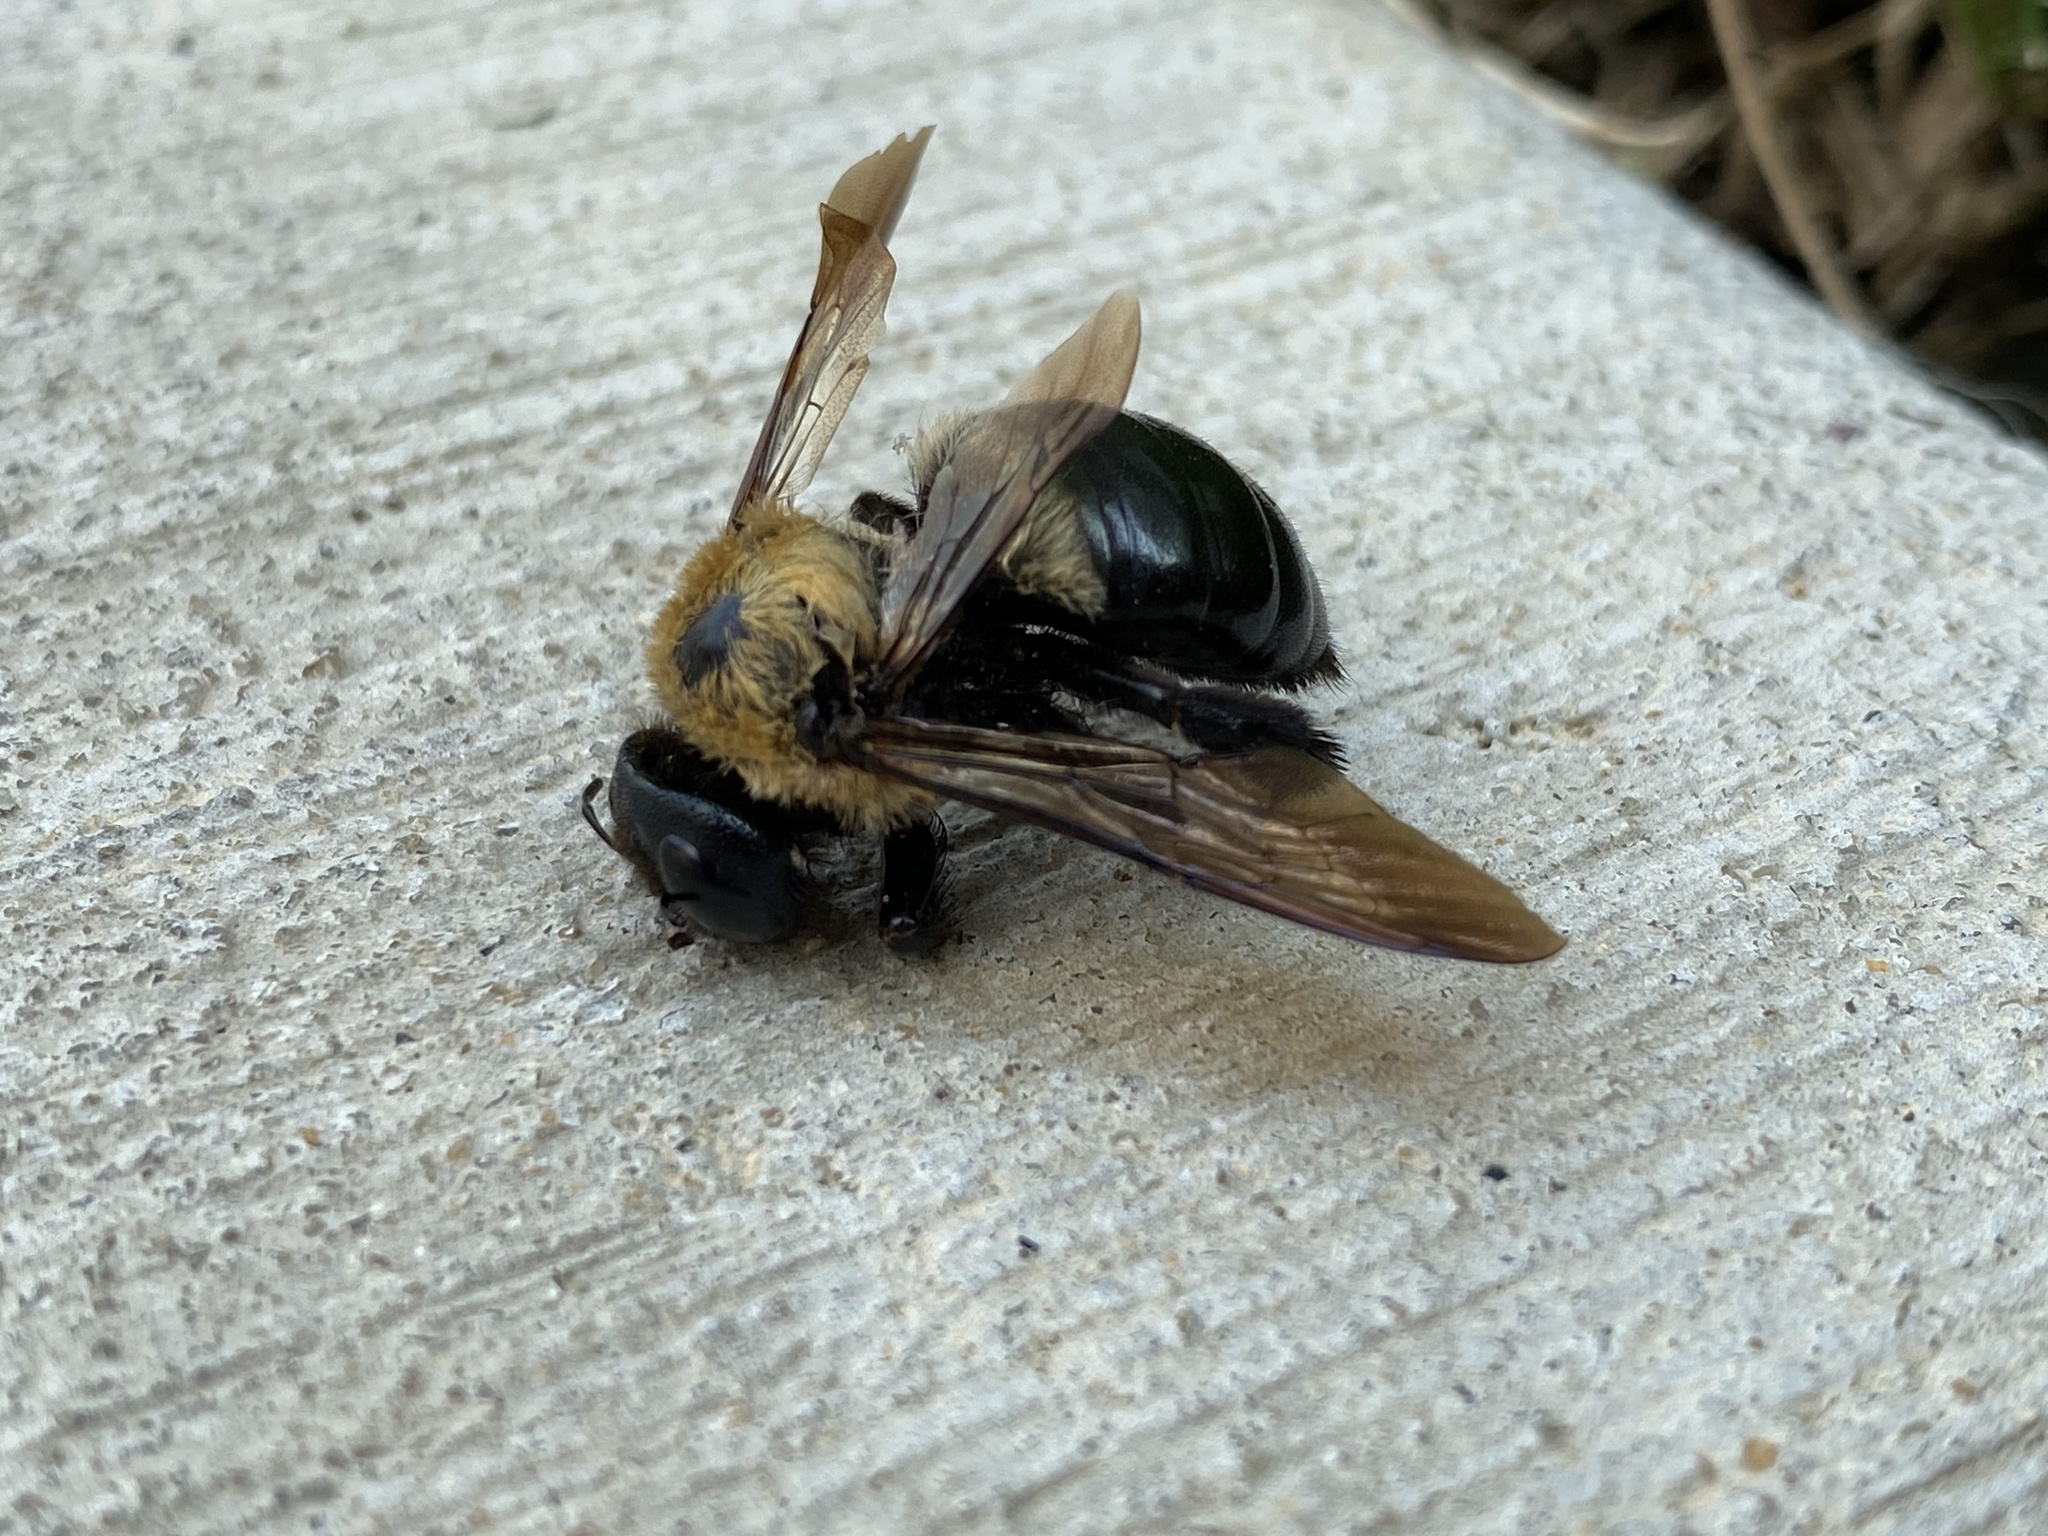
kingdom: Animalia
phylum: Arthropoda
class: Insecta
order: Hymenoptera
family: Apidae
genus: Xylocopa
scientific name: Xylocopa virginica
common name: Carpenter bee
